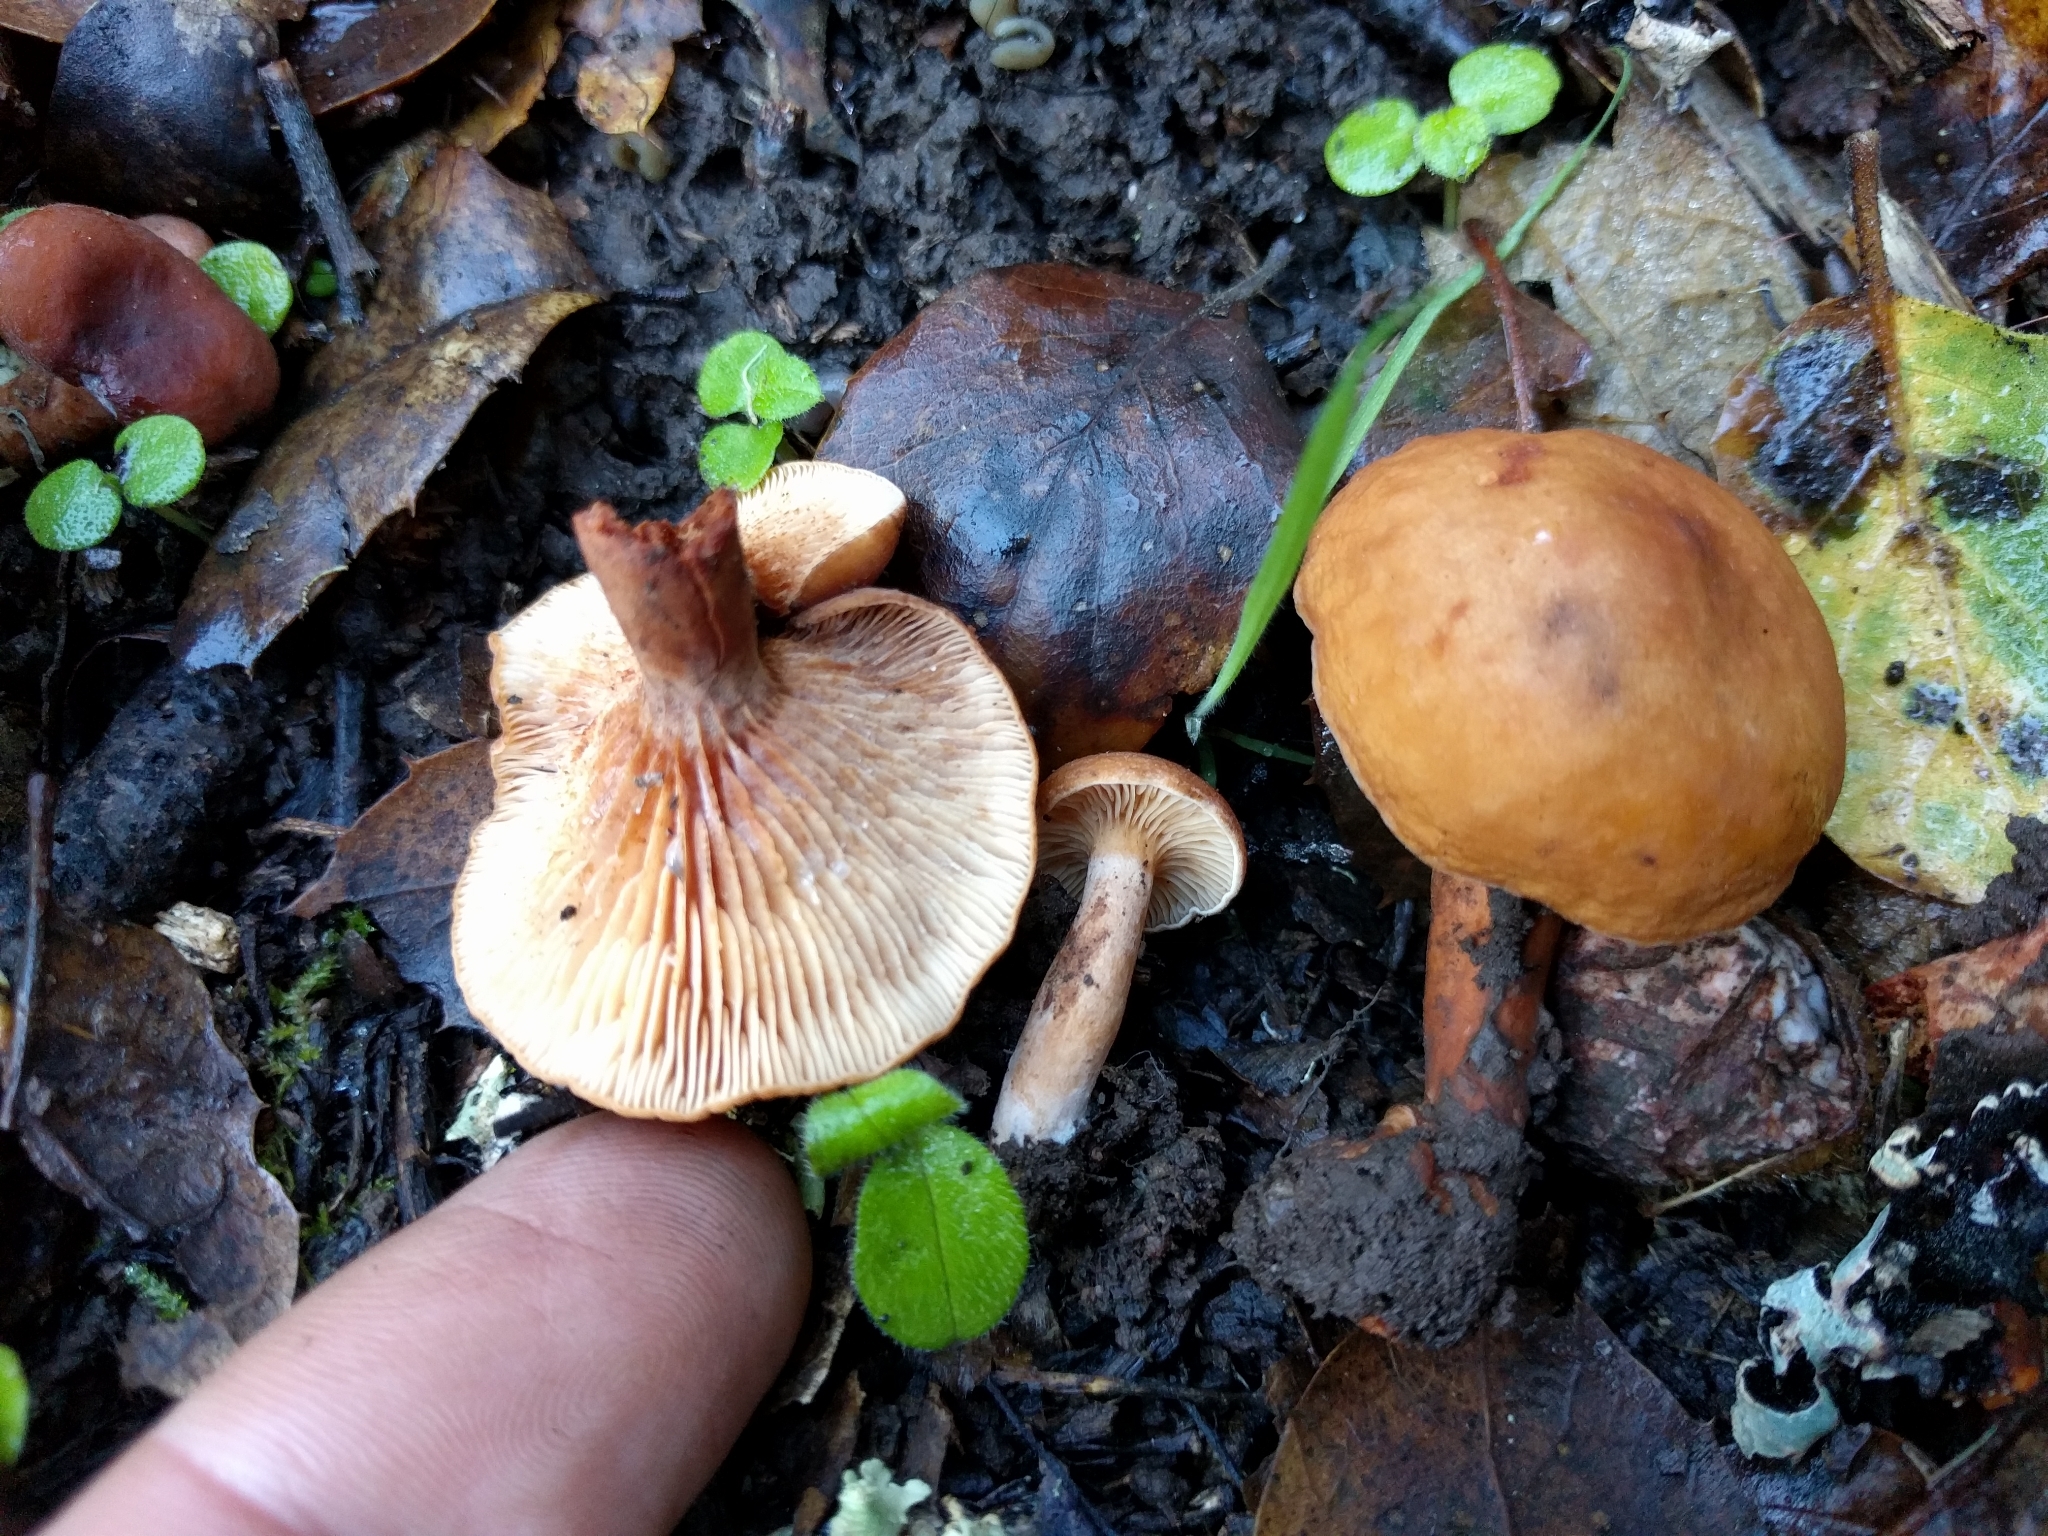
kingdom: Fungi
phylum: Basidiomycota
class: Agaricomycetes
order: Russulales
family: Russulaceae
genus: Lactarius
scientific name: Lactarius rubidus
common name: Candy cap
